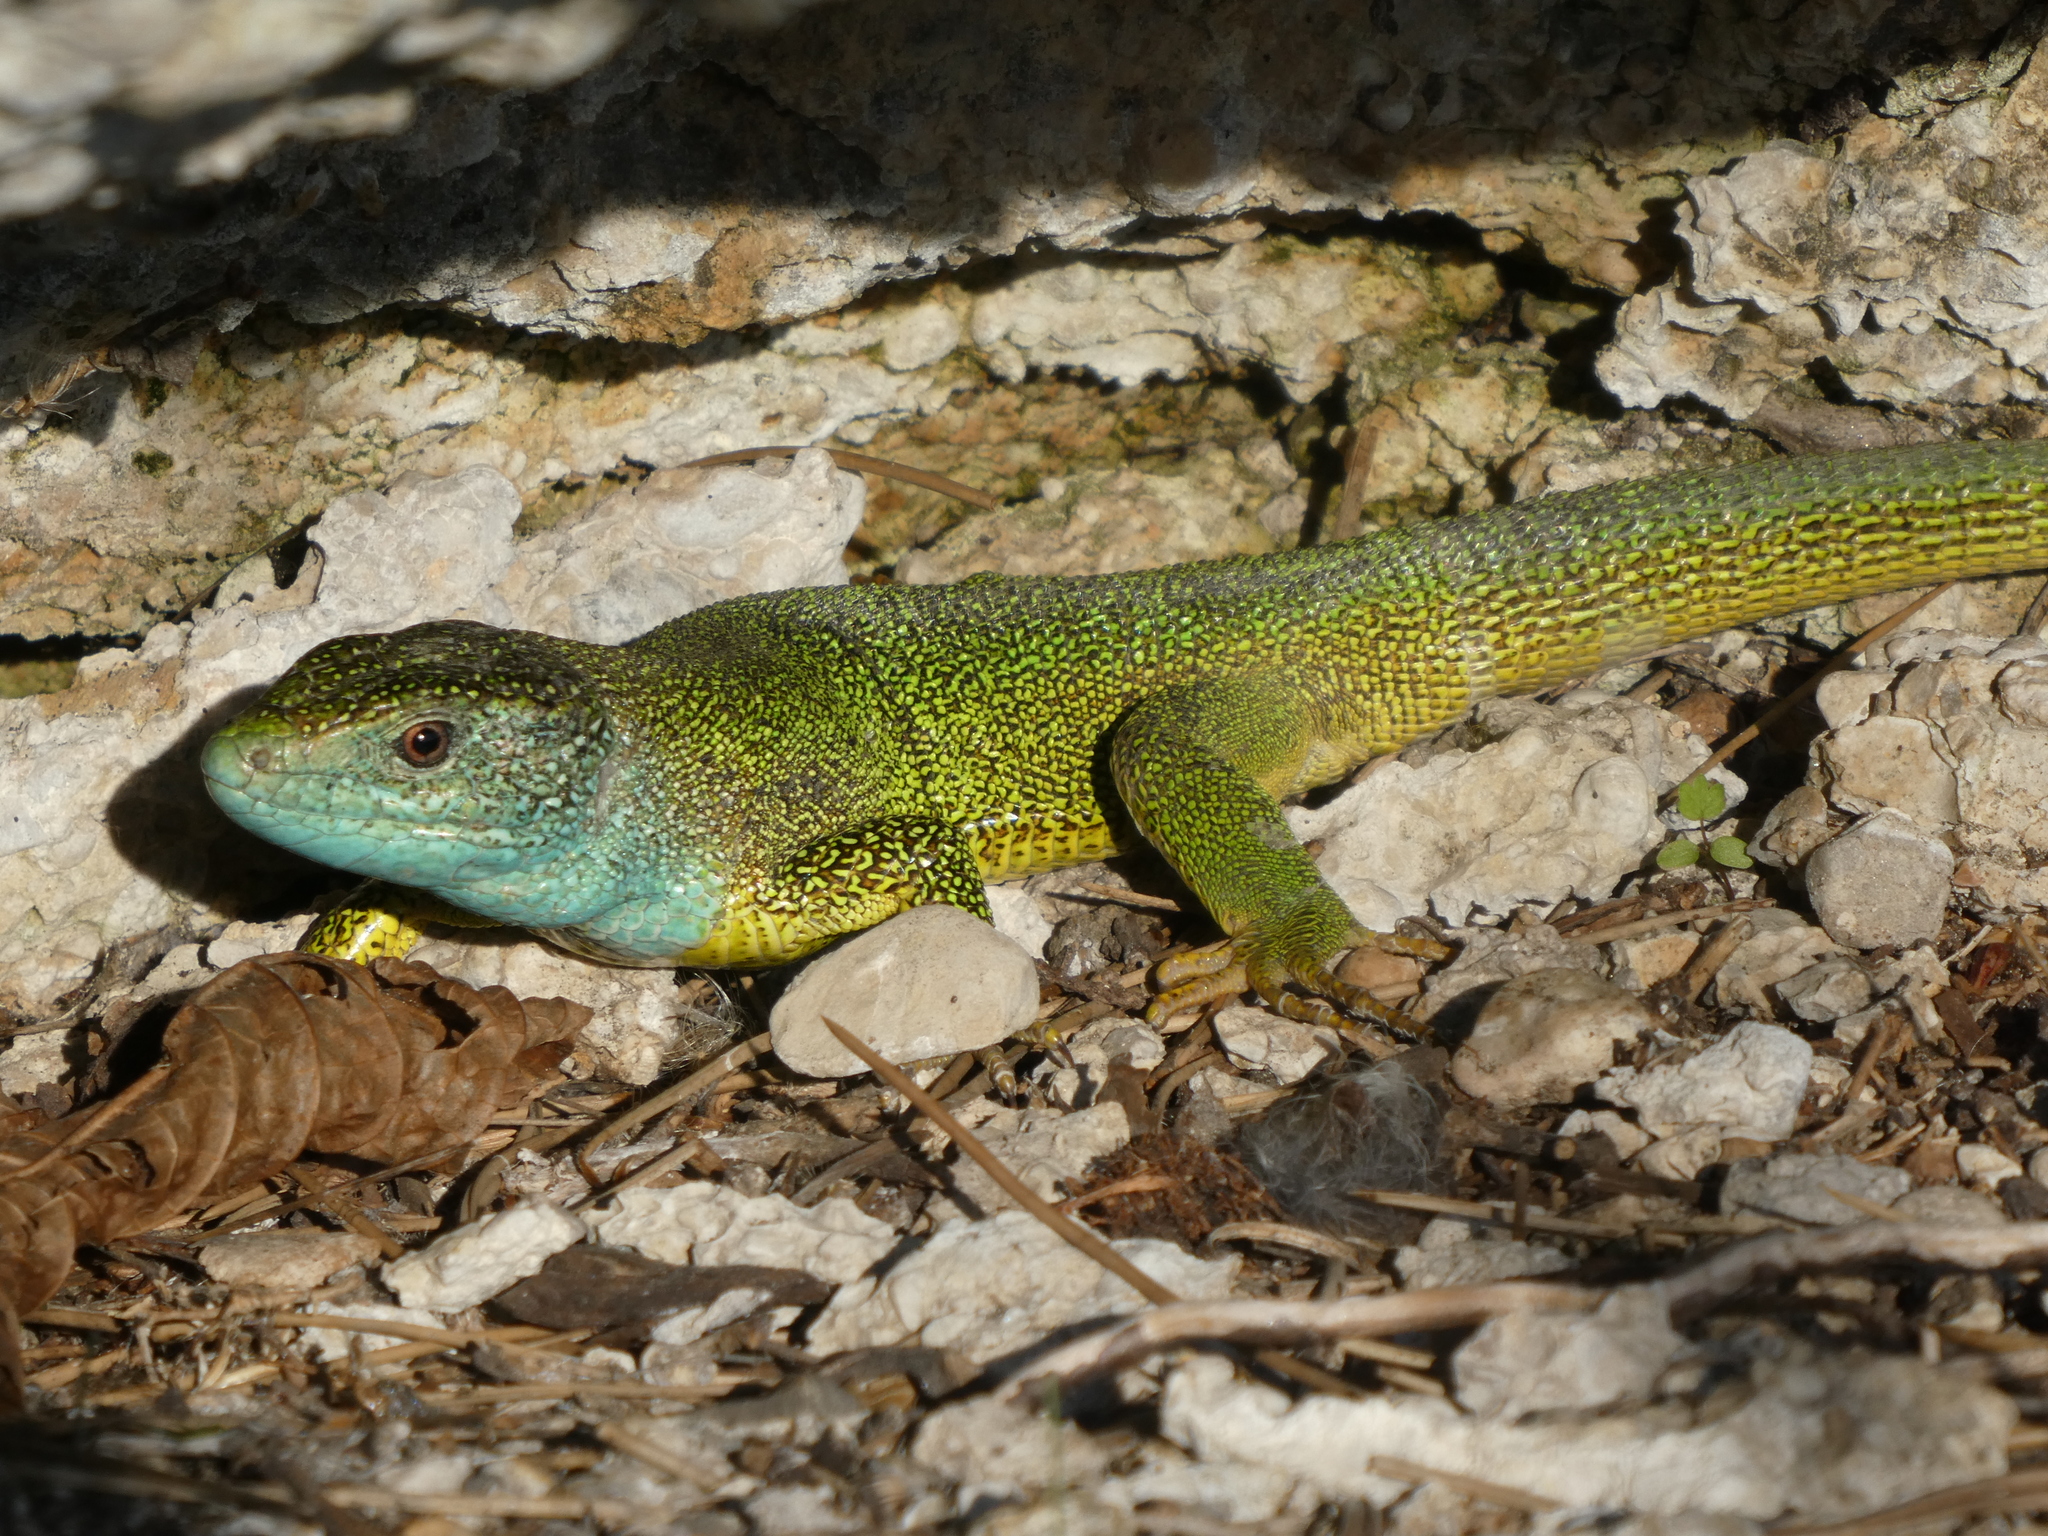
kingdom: Animalia
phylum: Chordata
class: Squamata
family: Lacertidae
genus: Lacerta
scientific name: Lacerta viridis
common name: European green lizard
